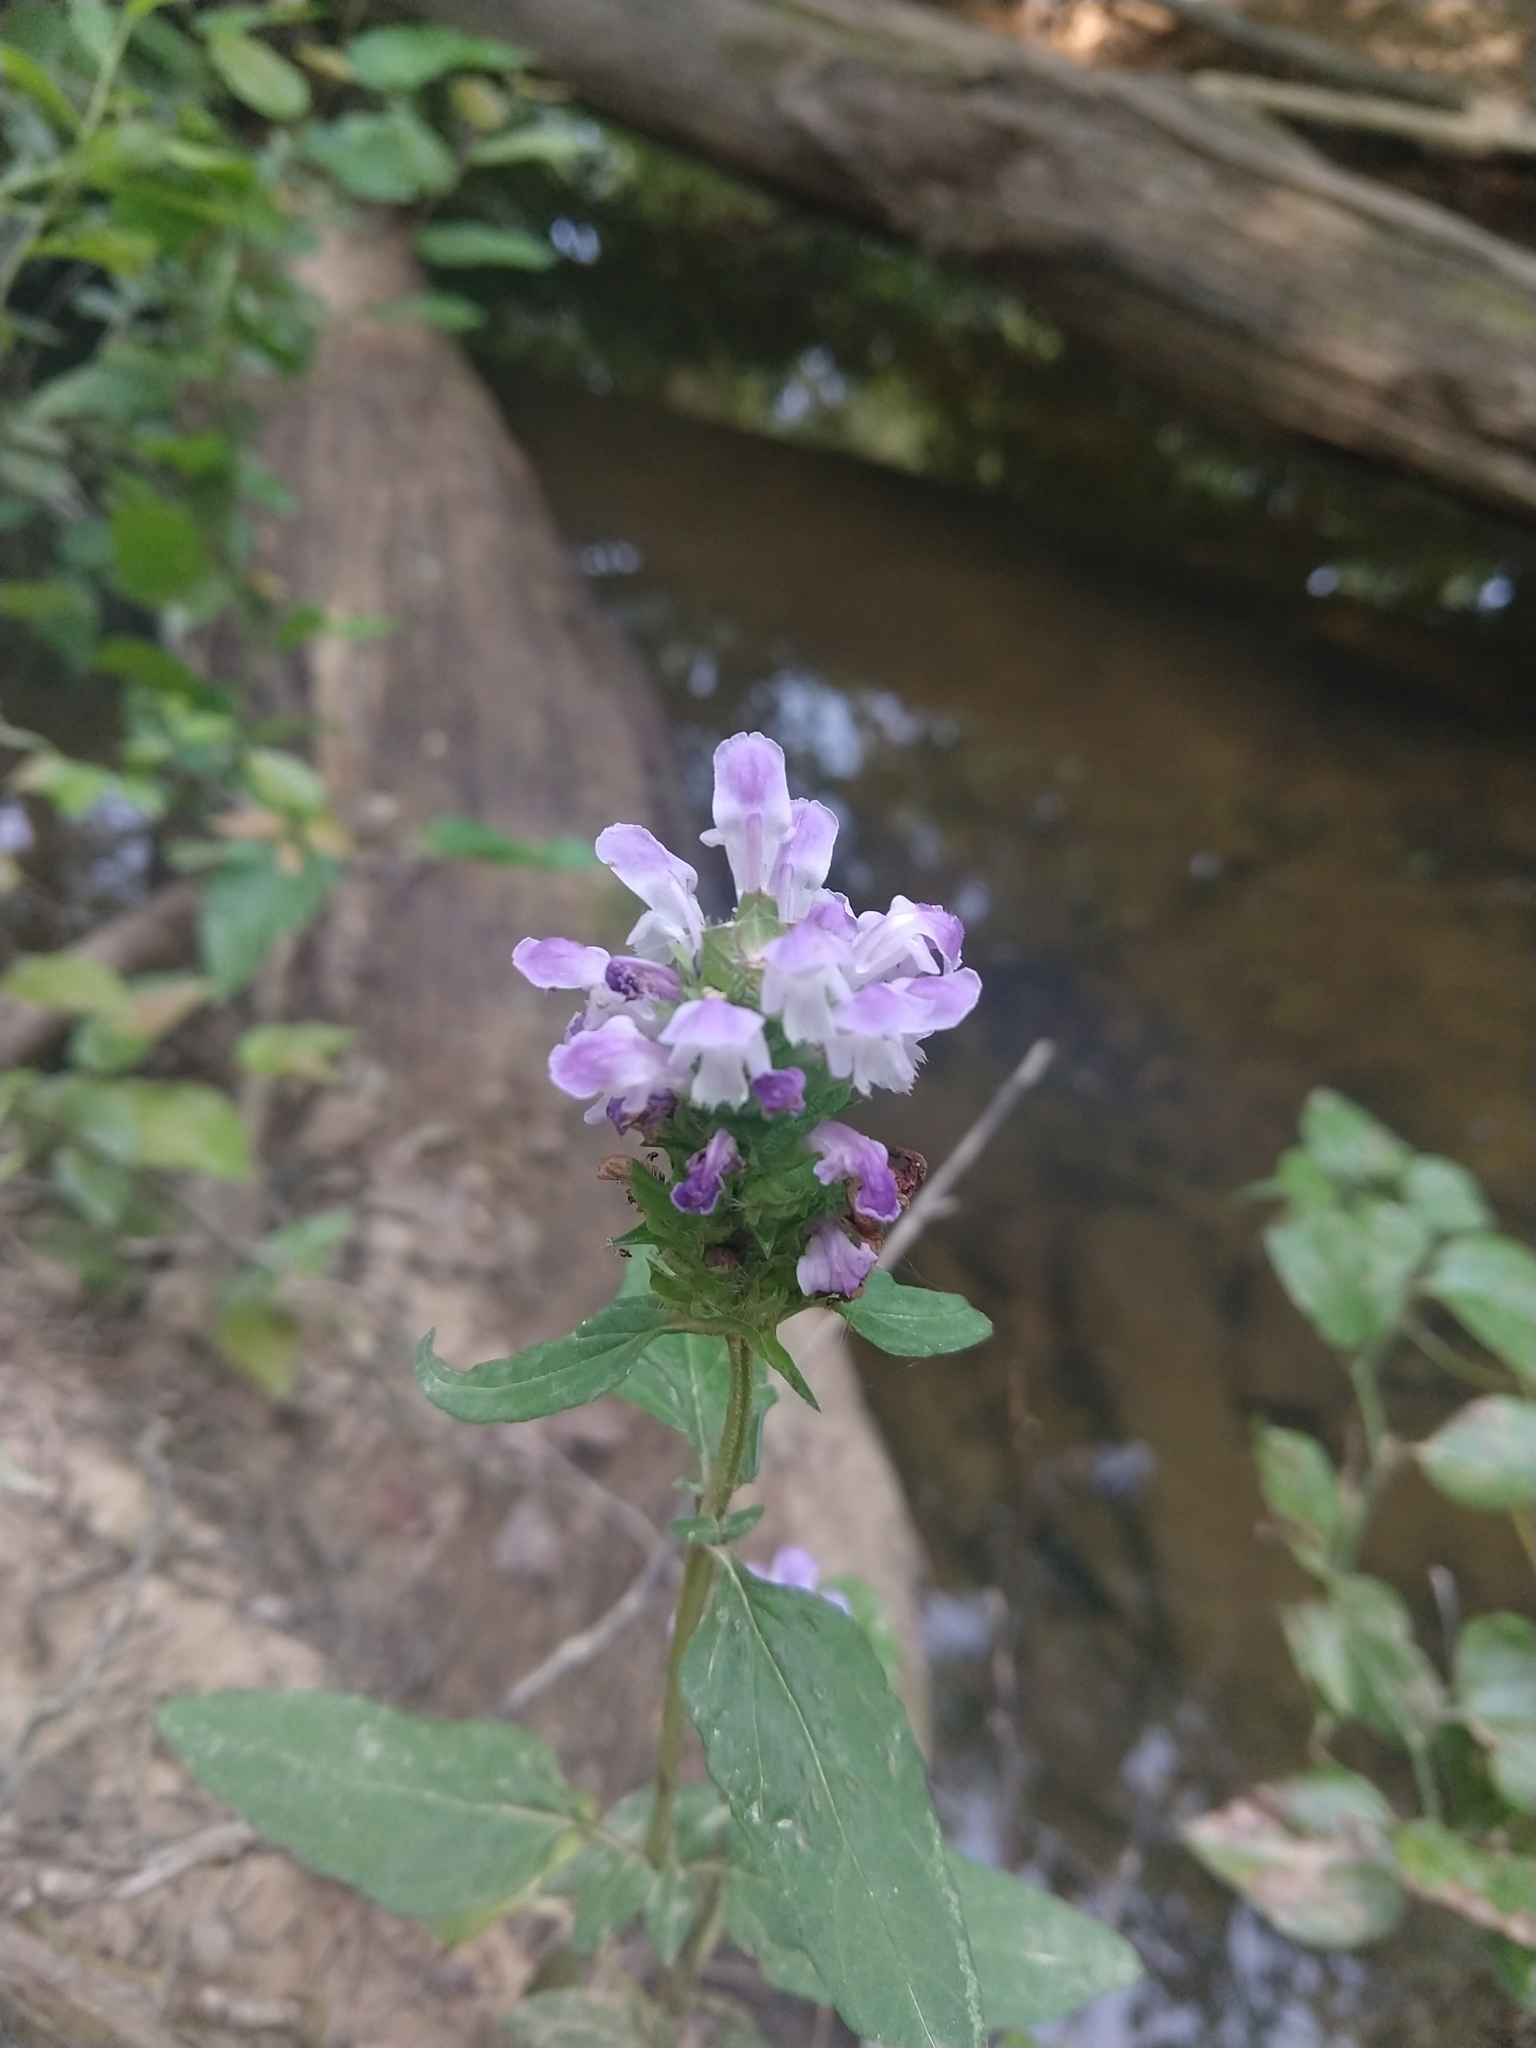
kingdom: Plantae
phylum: Tracheophyta
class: Magnoliopsida
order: Lamiales
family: Lamiaceae
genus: Prunella
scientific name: Prunella vulgaris
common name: Heal-all
